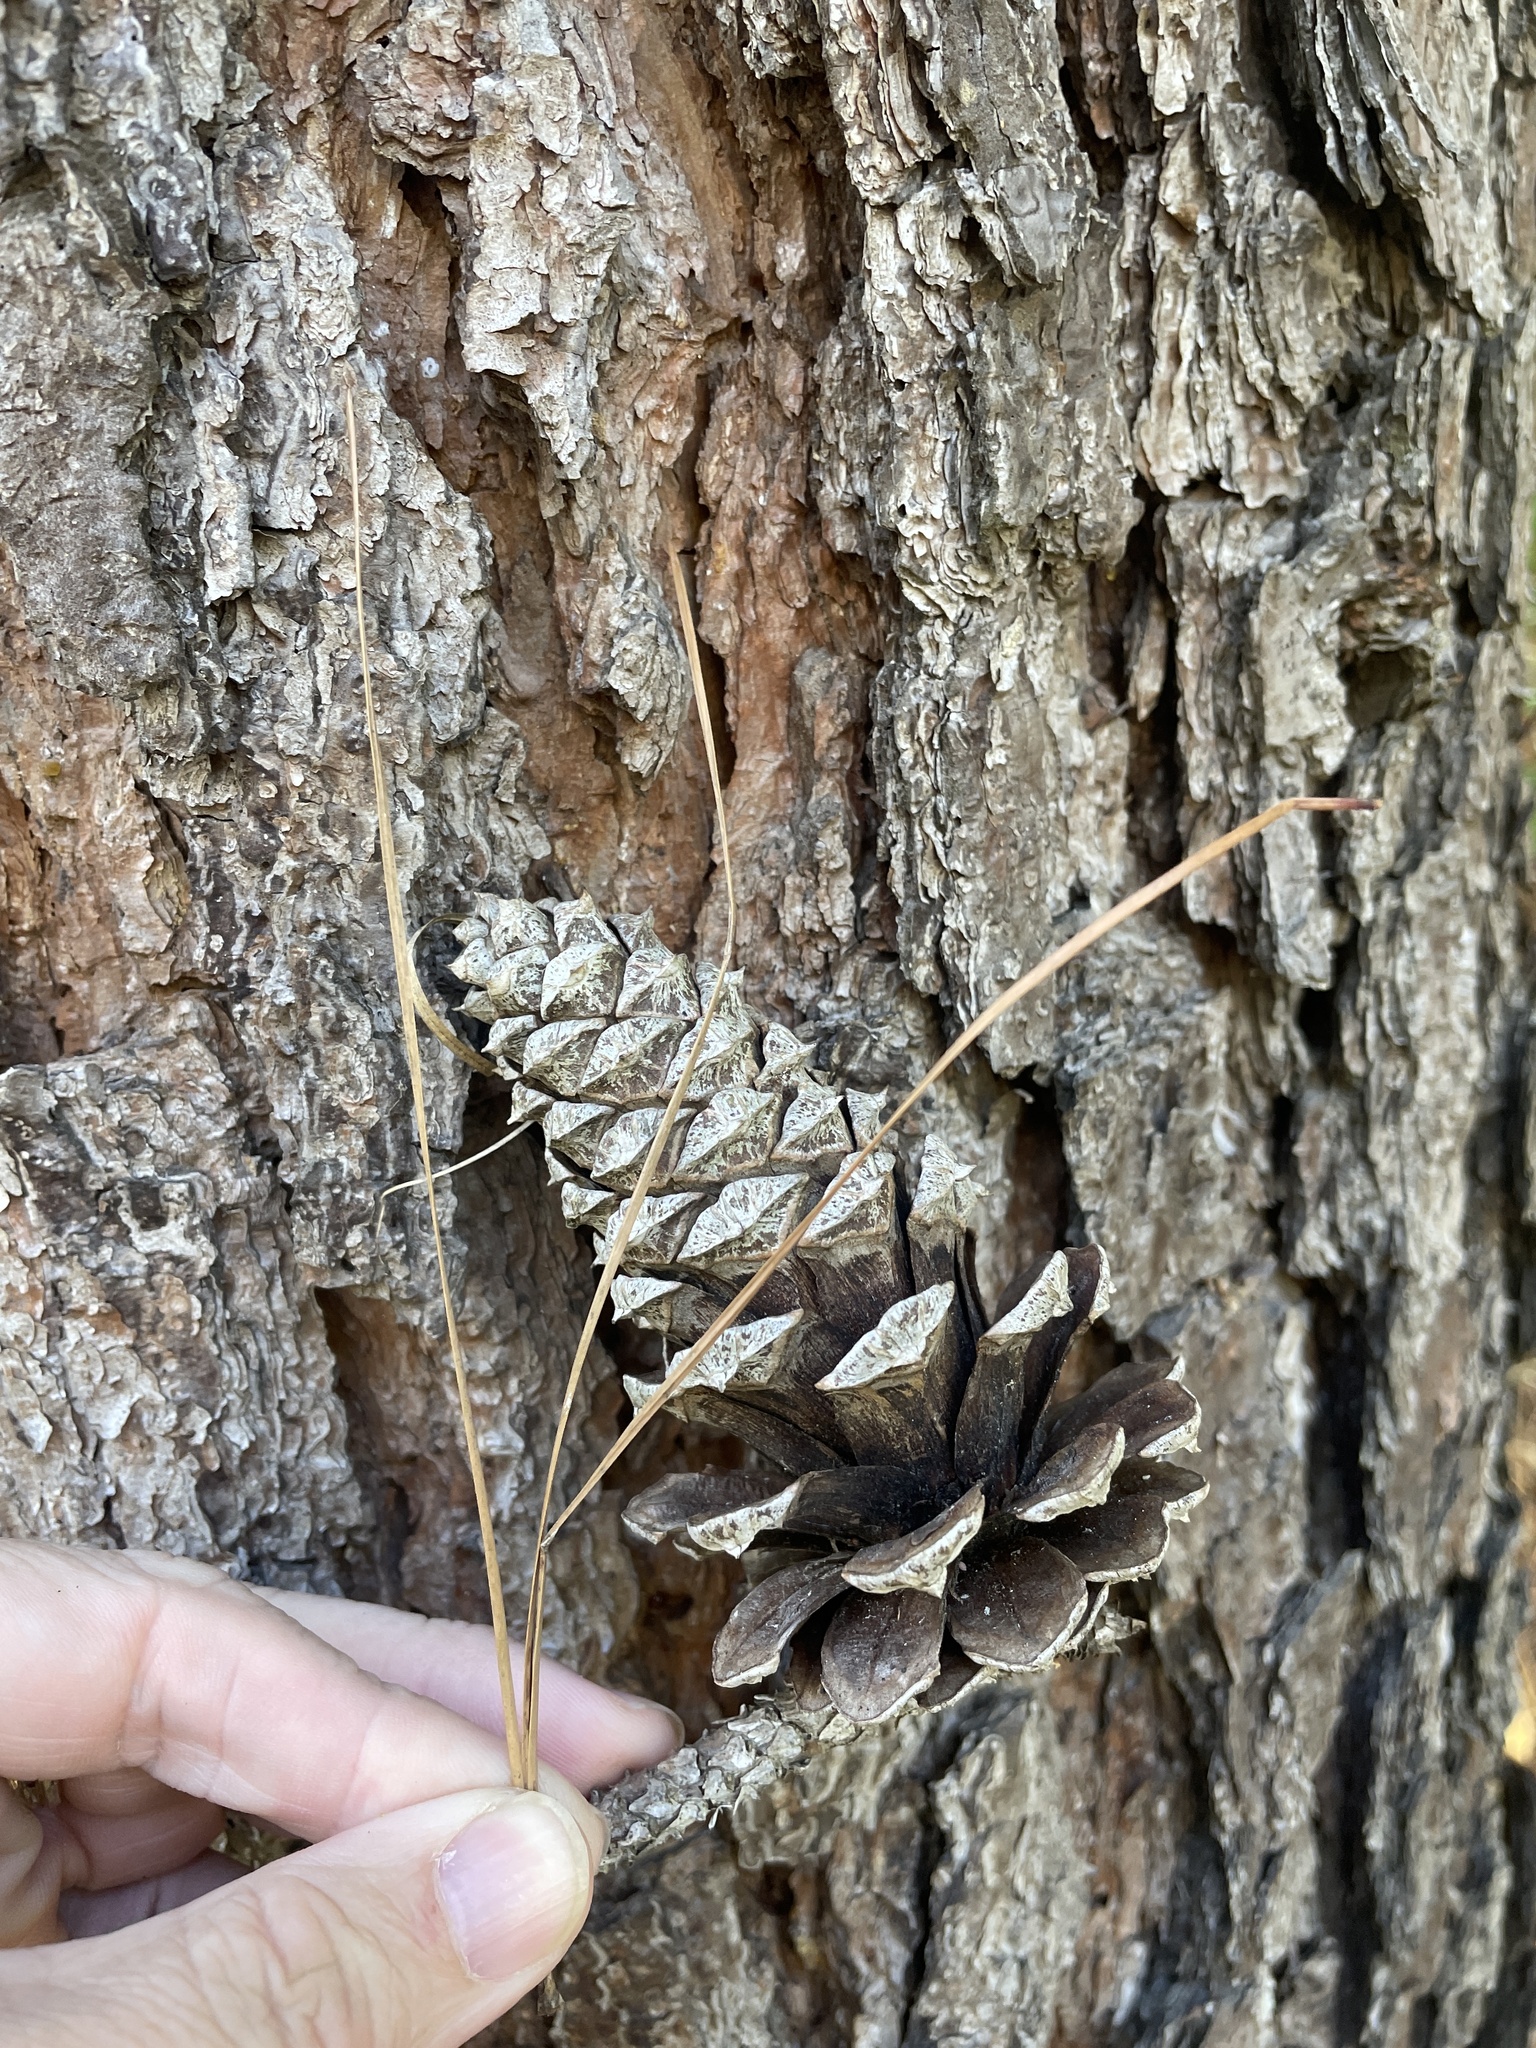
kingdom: Plantae
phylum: Tracheophyta
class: Pinopsida
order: Pinales
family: Pinaceae
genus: Pinus
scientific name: Pinus taeda
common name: Loblolly pine
